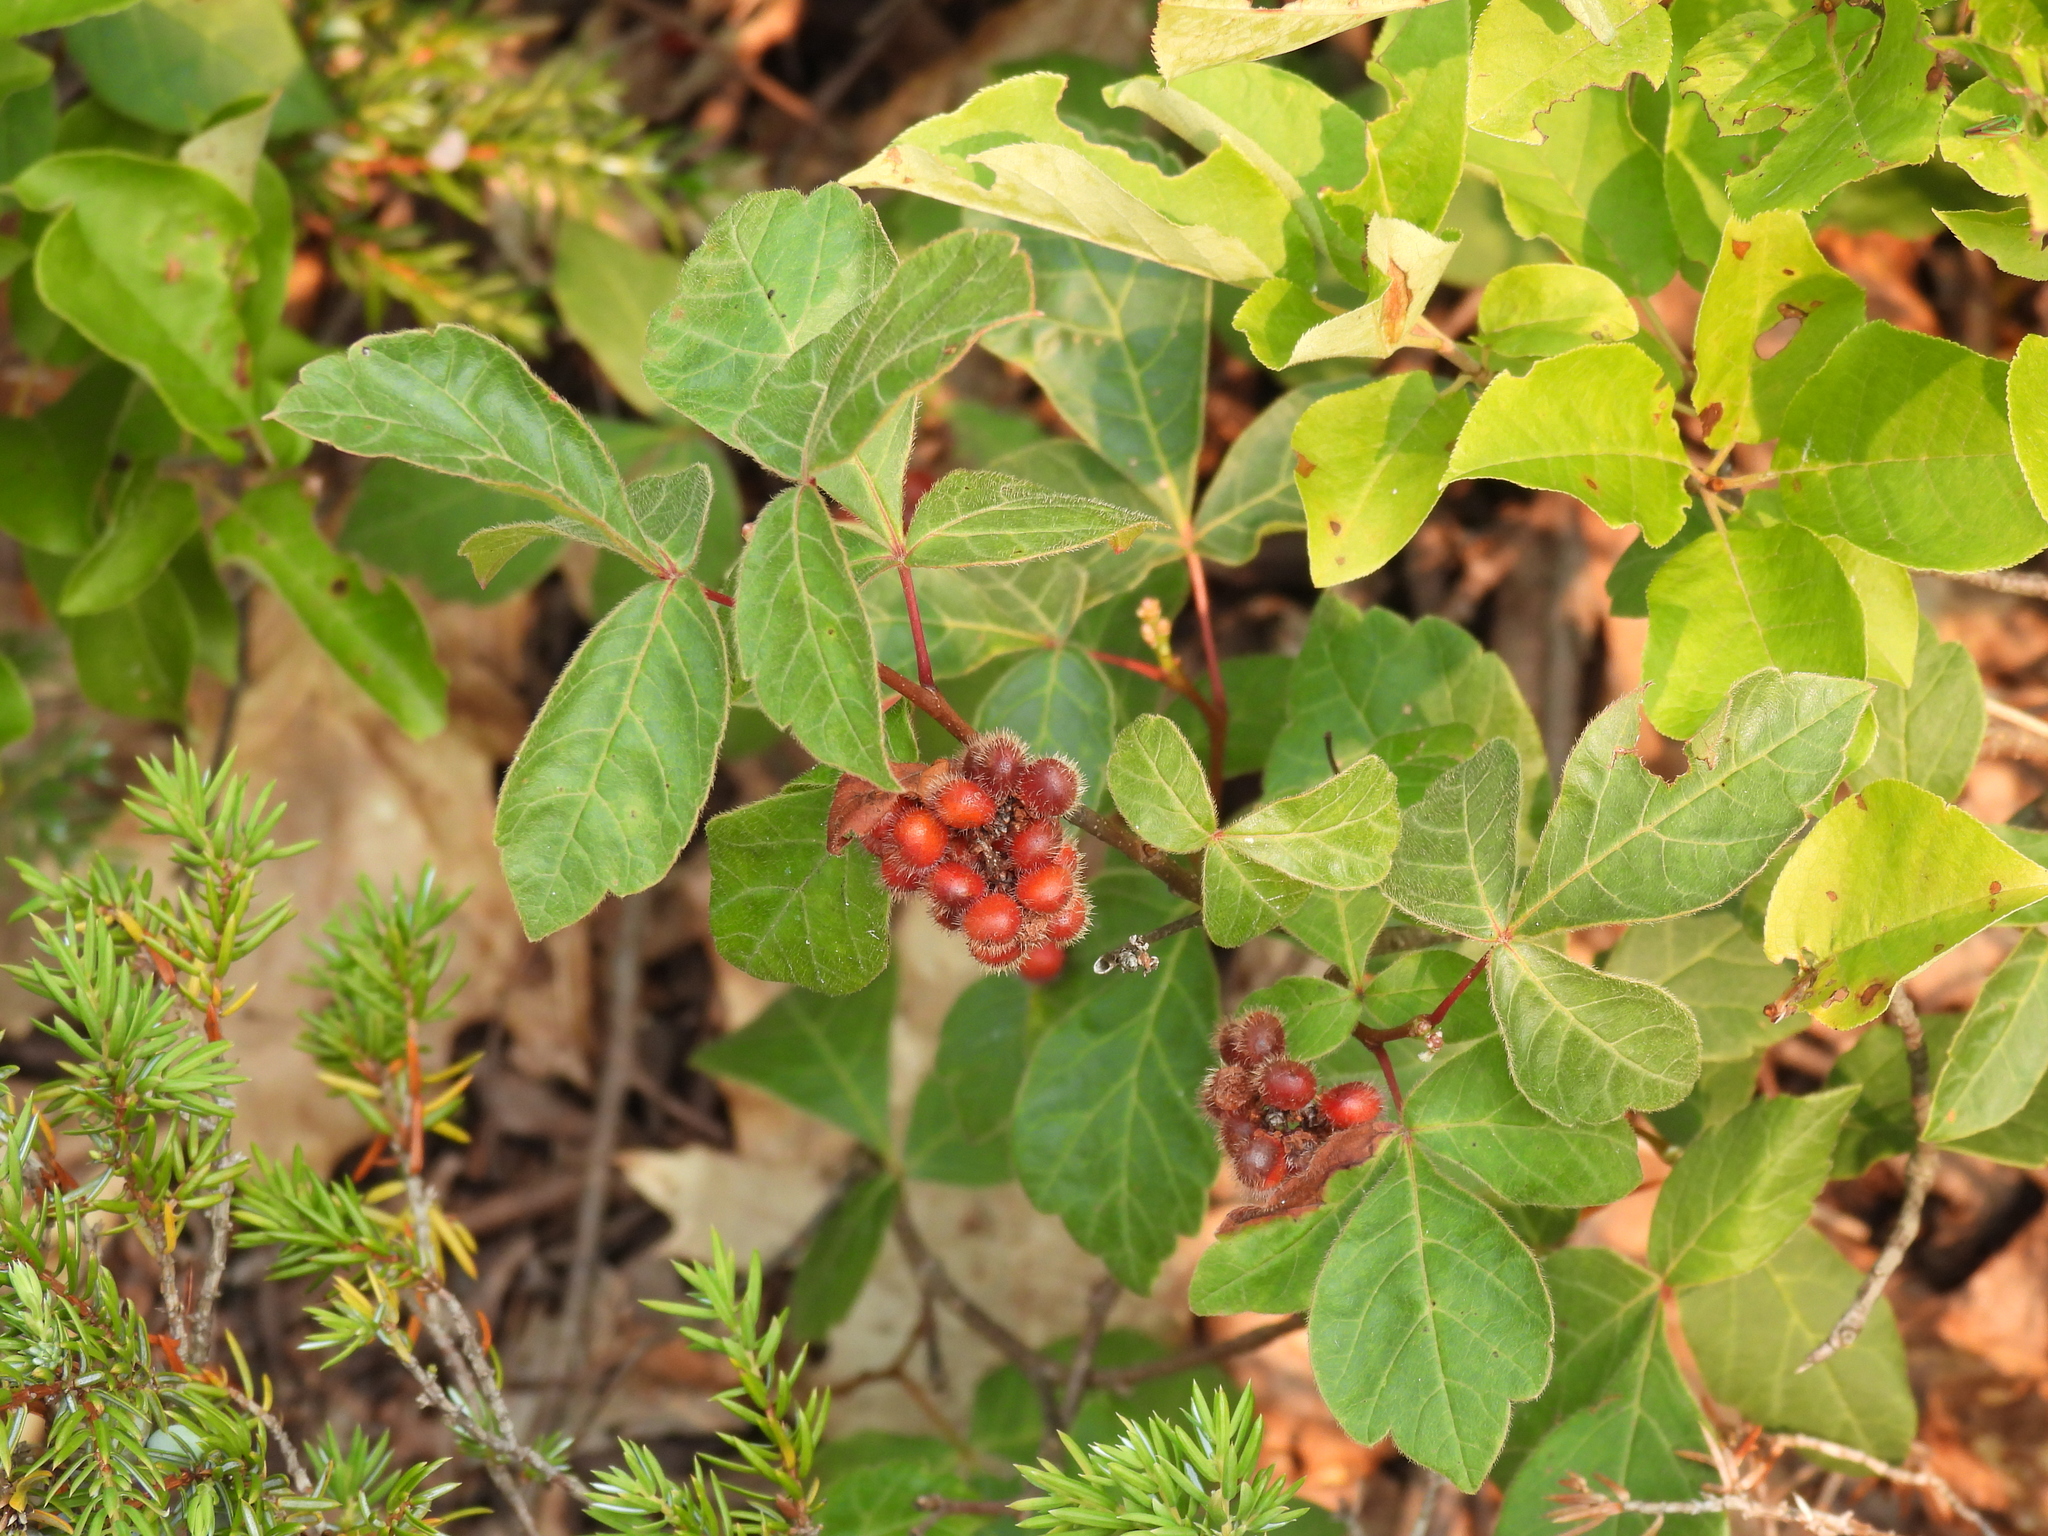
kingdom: Plantae
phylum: Tracheophyta
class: Magnoliopsida
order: Sapindales
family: Anacardiaceae
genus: Rhus
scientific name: Rhus aromatica
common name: Aromatic sumac
